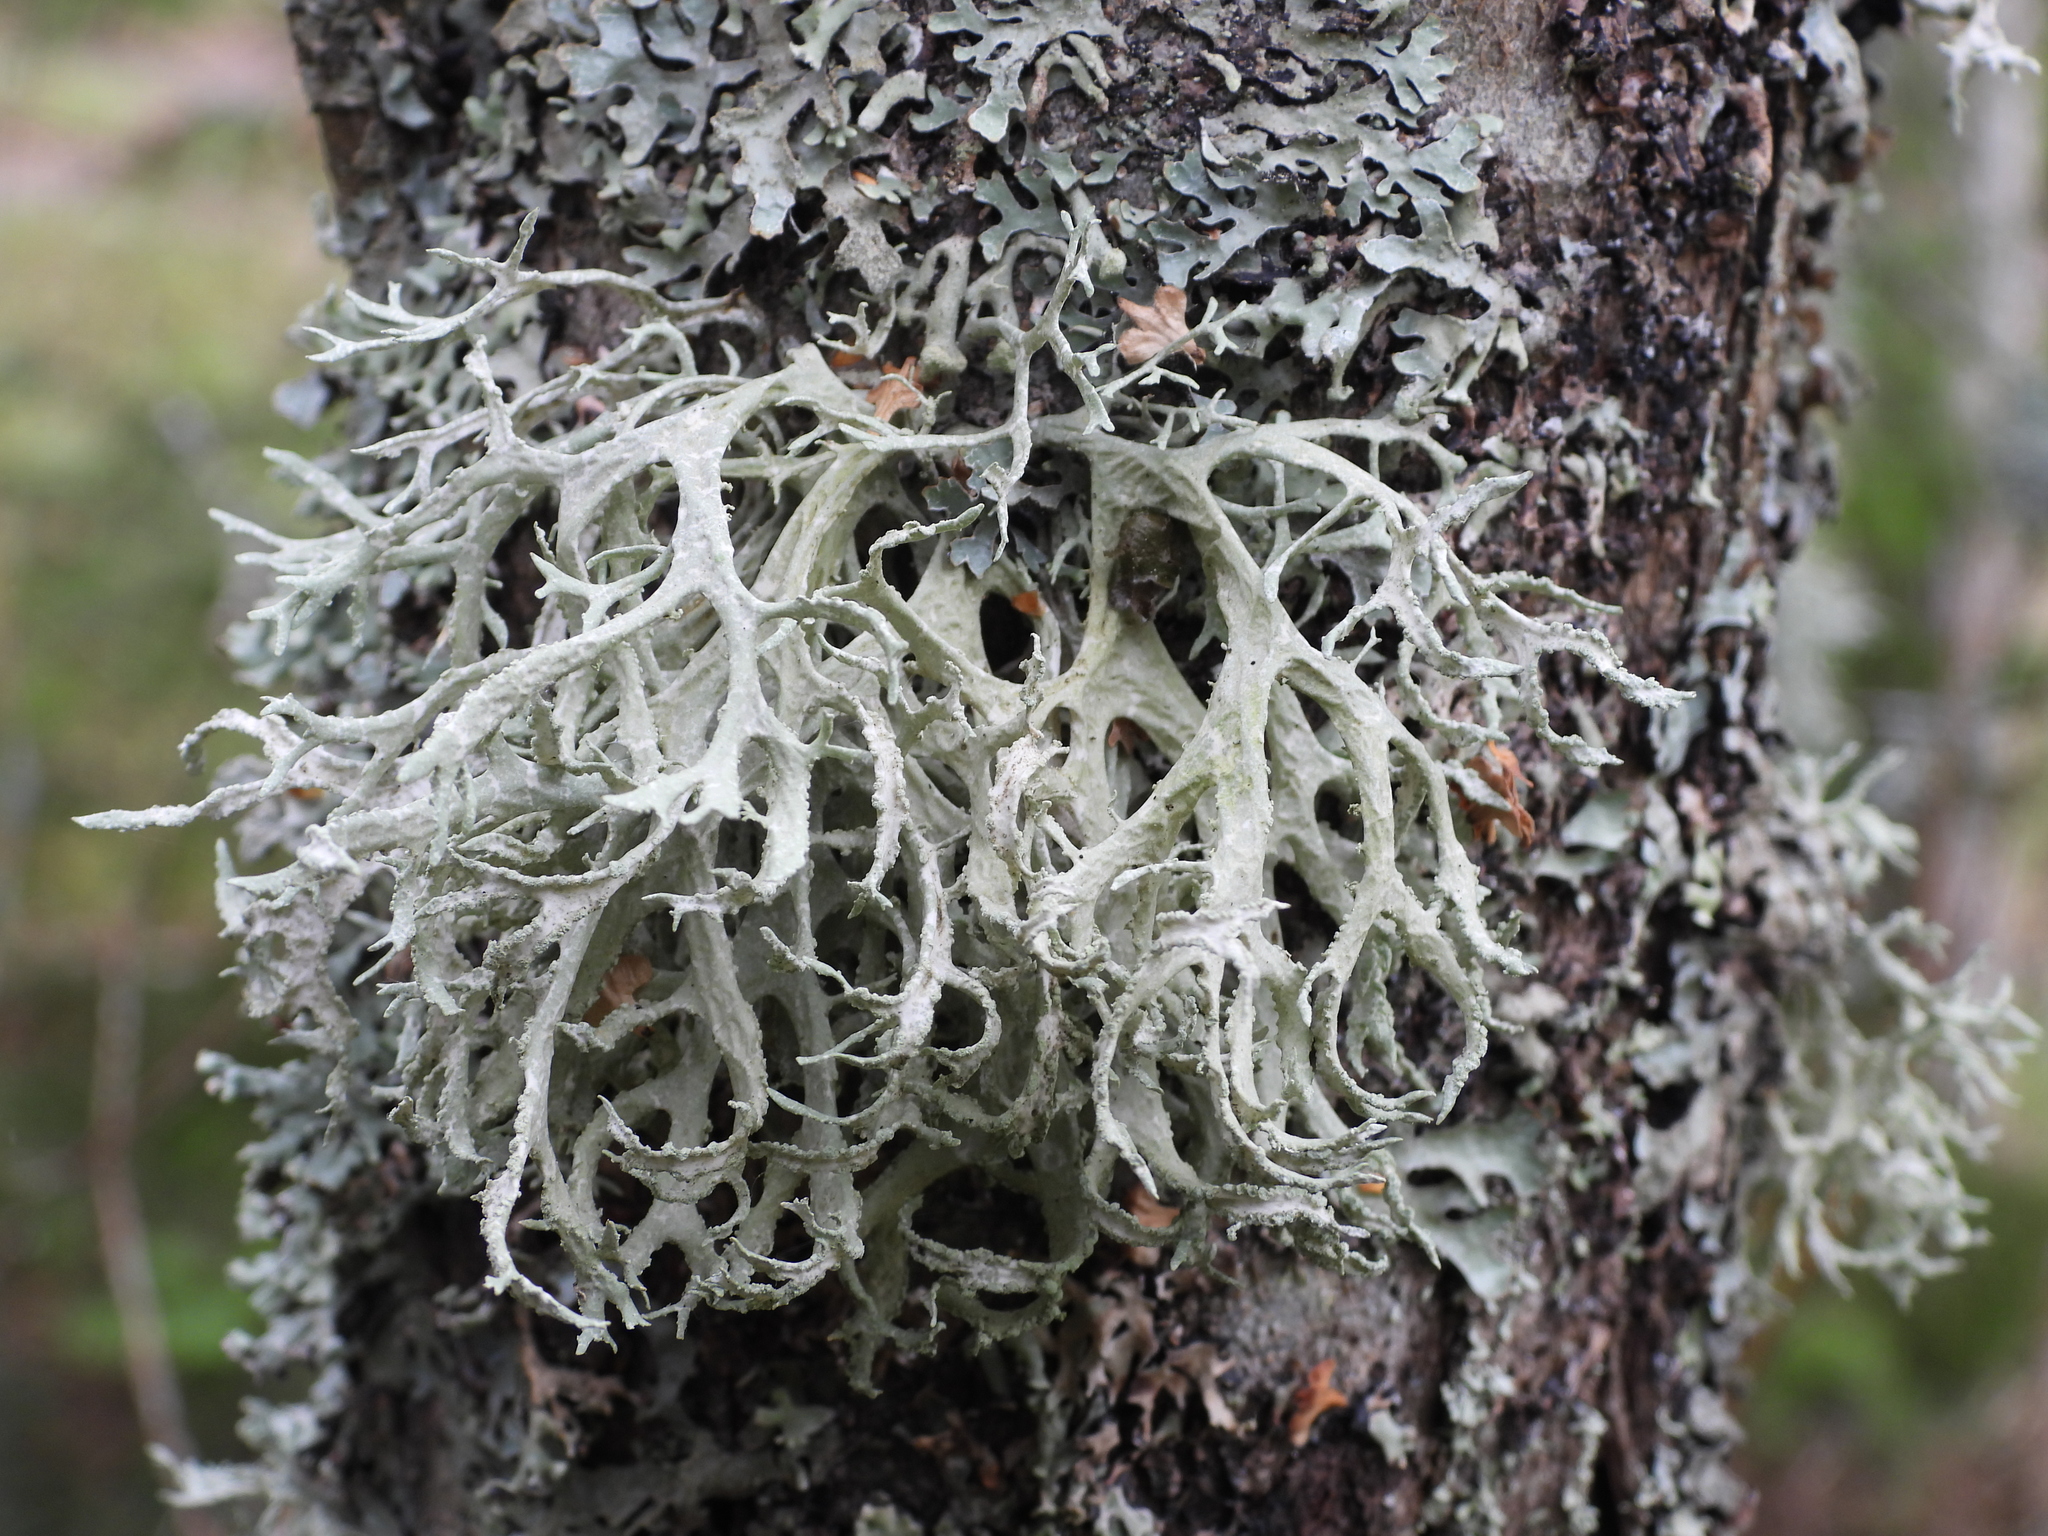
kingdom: Fungi
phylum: Ascomycota
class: Lecanoromycetes
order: Lecanorales
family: Parmeliaceae
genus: Evernia
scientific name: Evernia prunastri
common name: Oak moss
